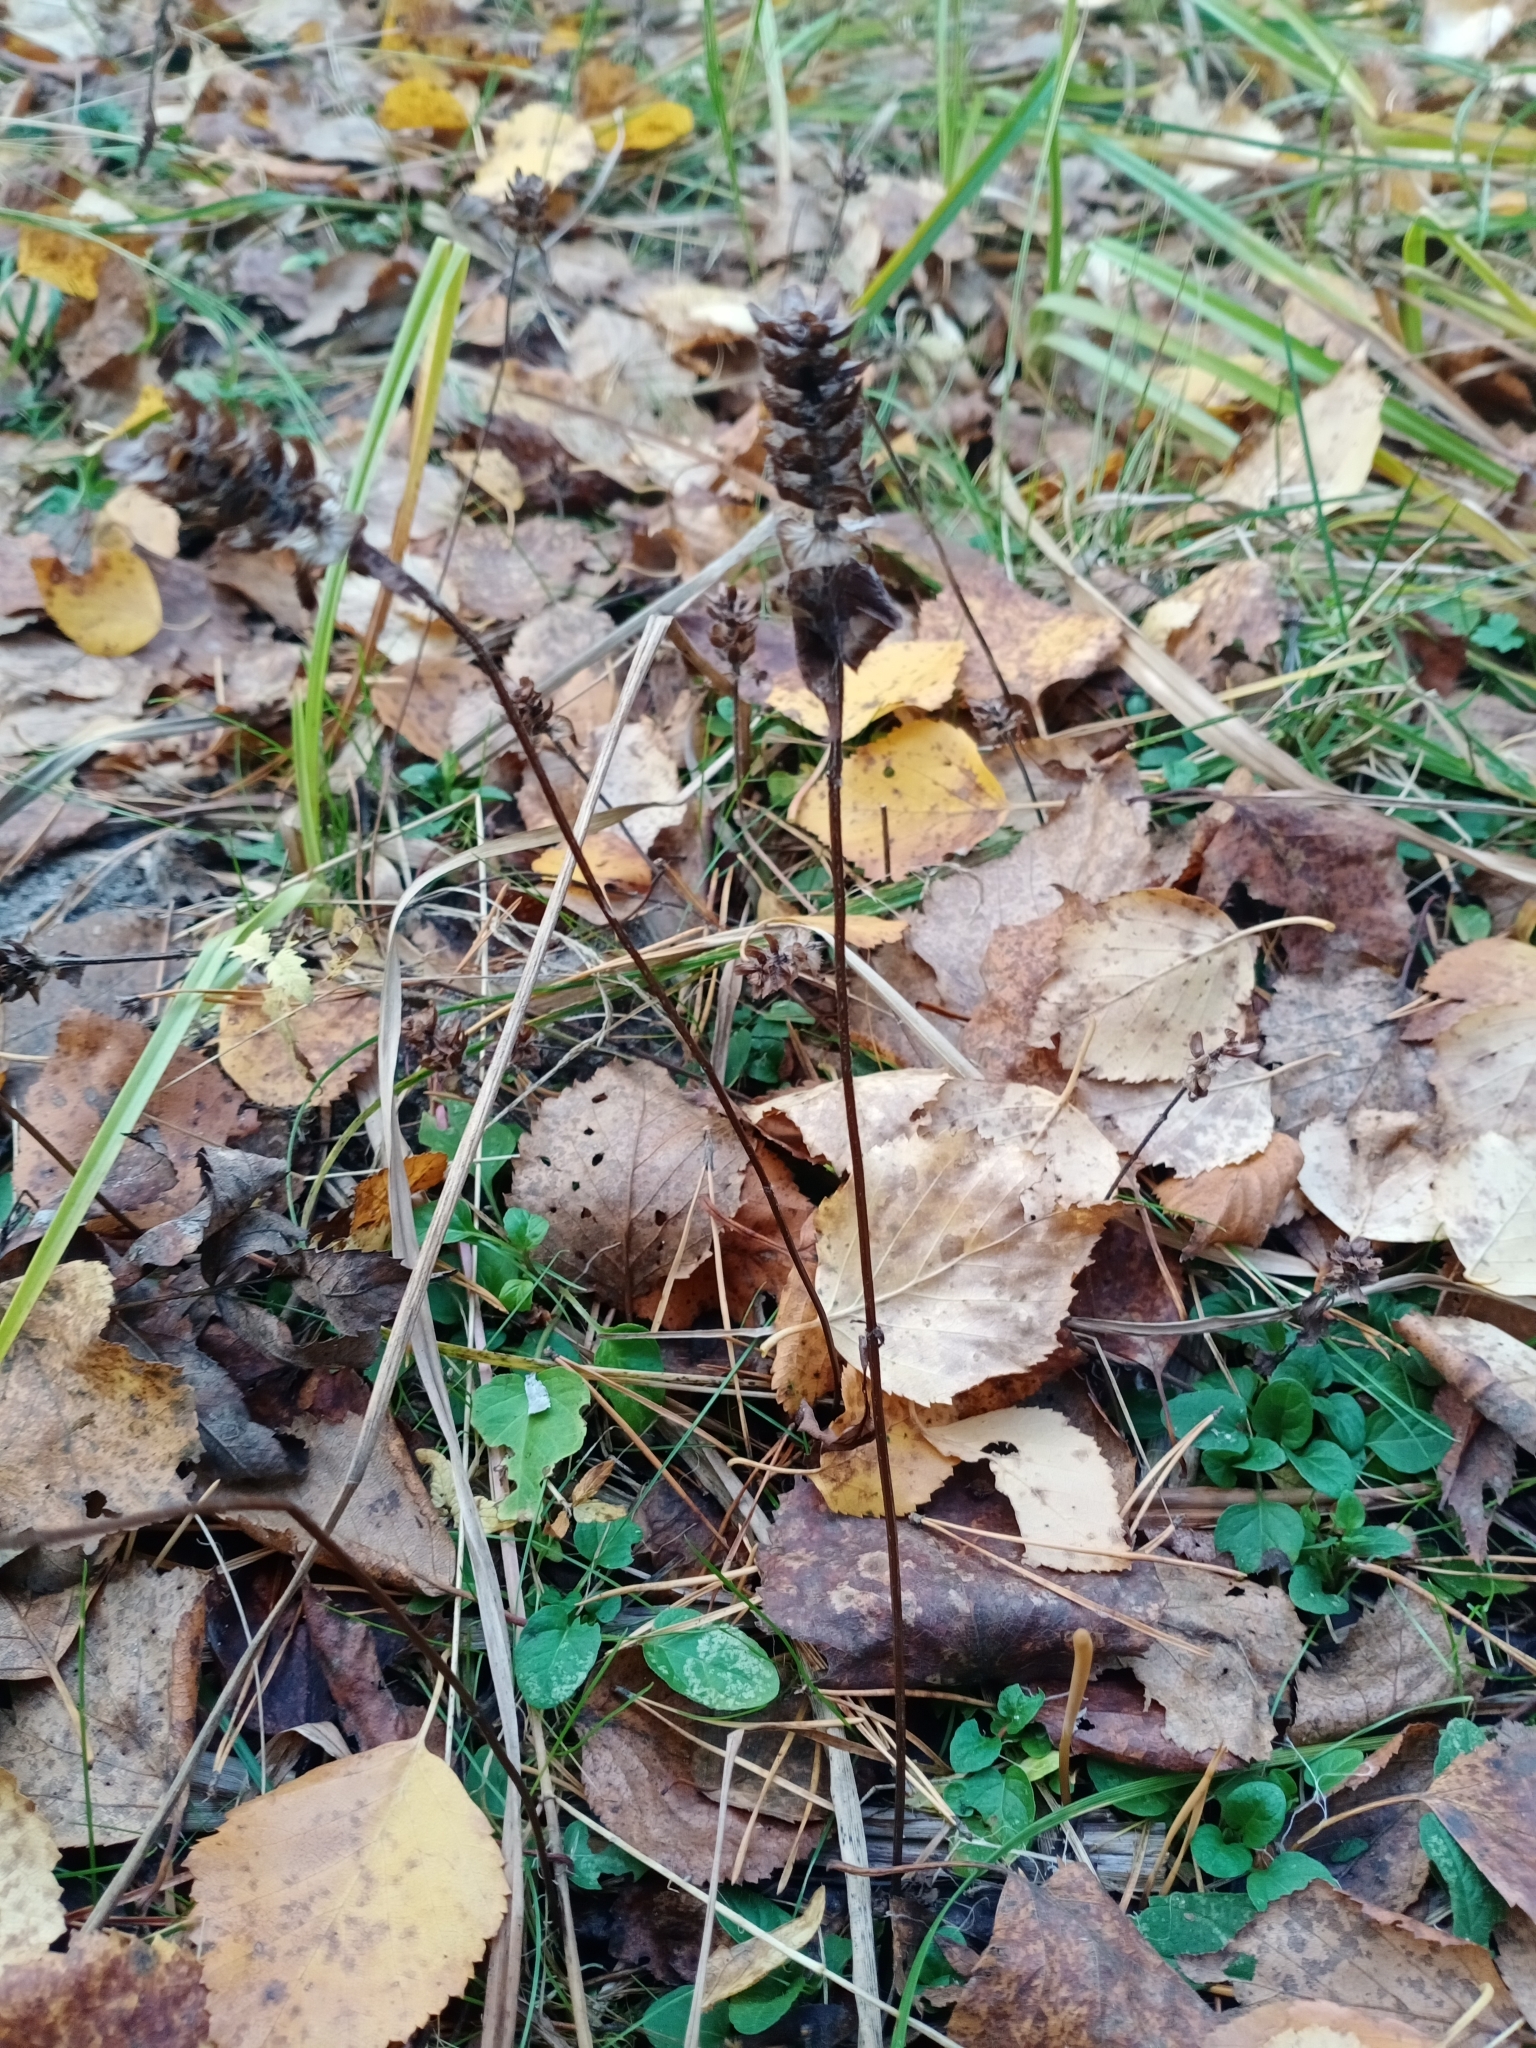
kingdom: Plantae
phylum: Tracheophyta
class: Magnoliopsida
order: Lamiales
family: Lamiaceae
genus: Prunella
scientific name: Prunella vulgaris
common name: Heal-all
